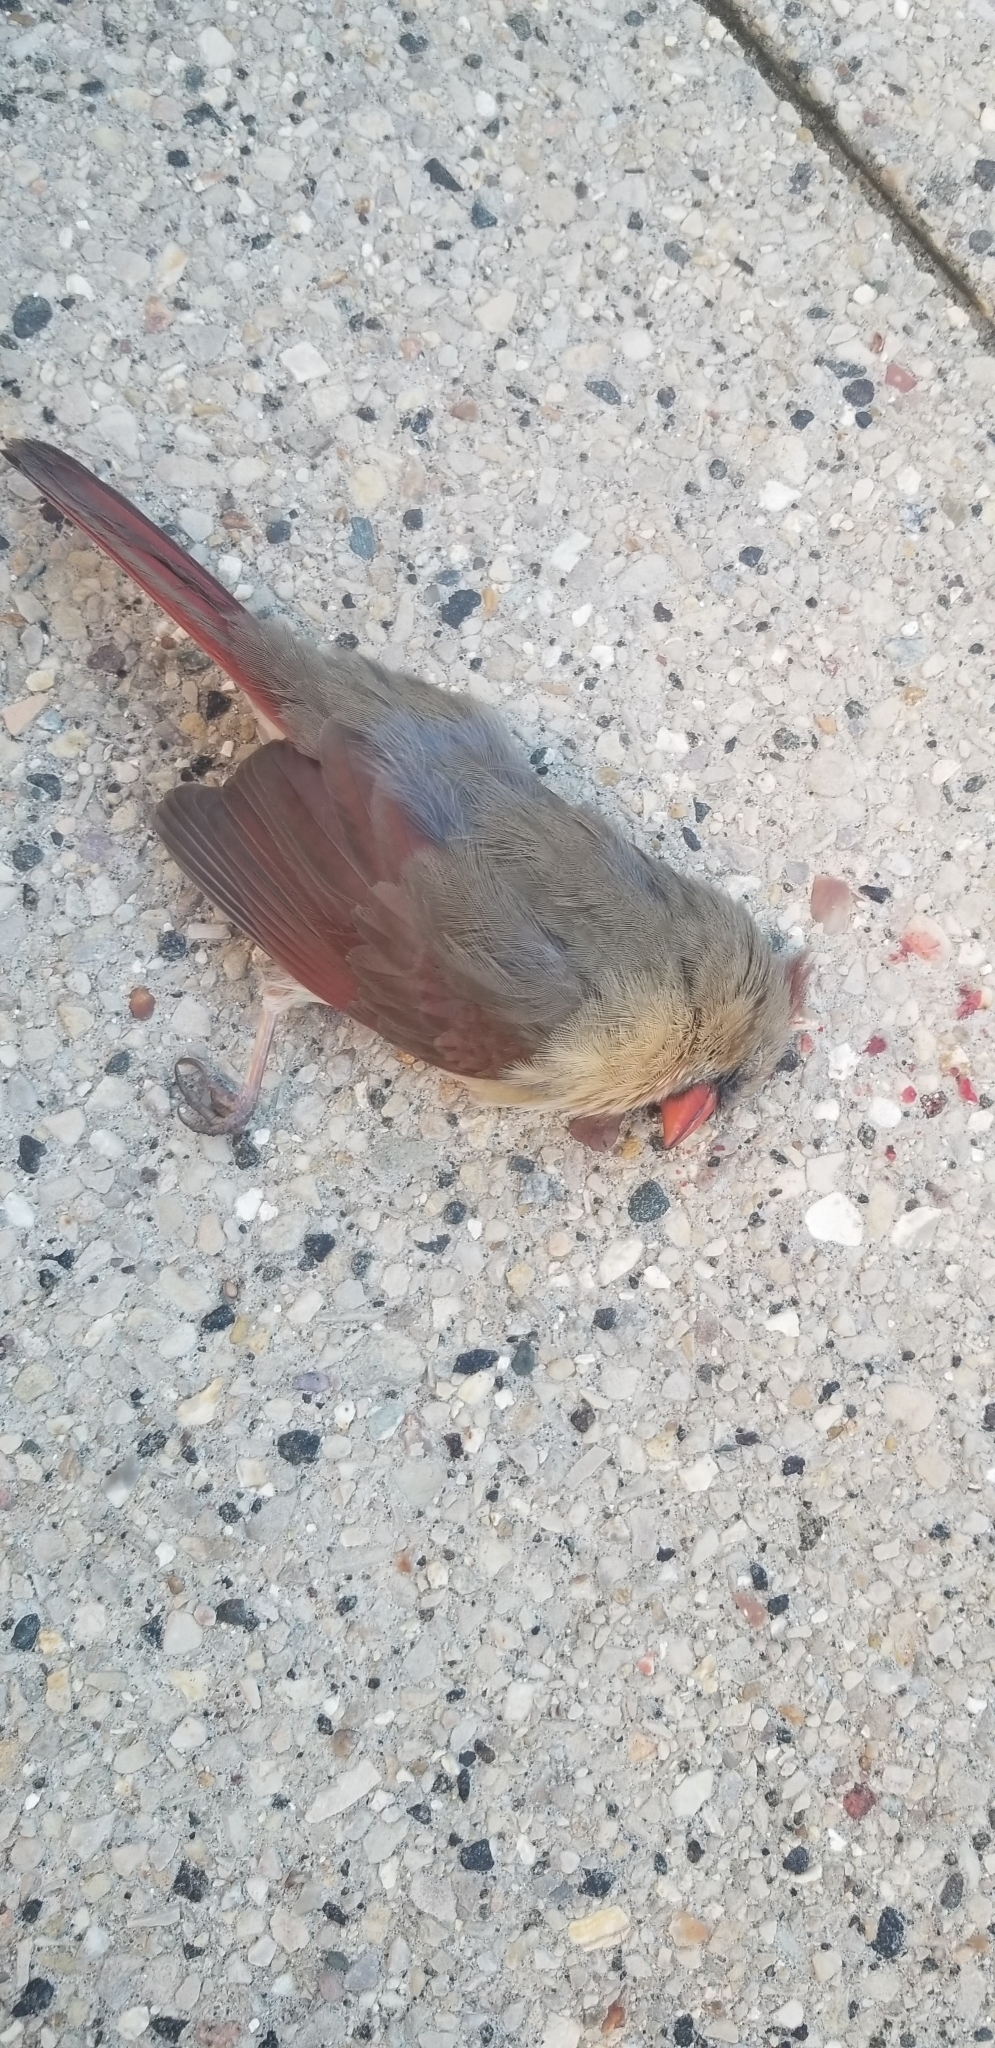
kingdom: Animalia
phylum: Chordata
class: Aves
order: Passeriformes
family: Cardinalidae
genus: Cardinalis
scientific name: Cardinalis cardinalis
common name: Northern cardinal
